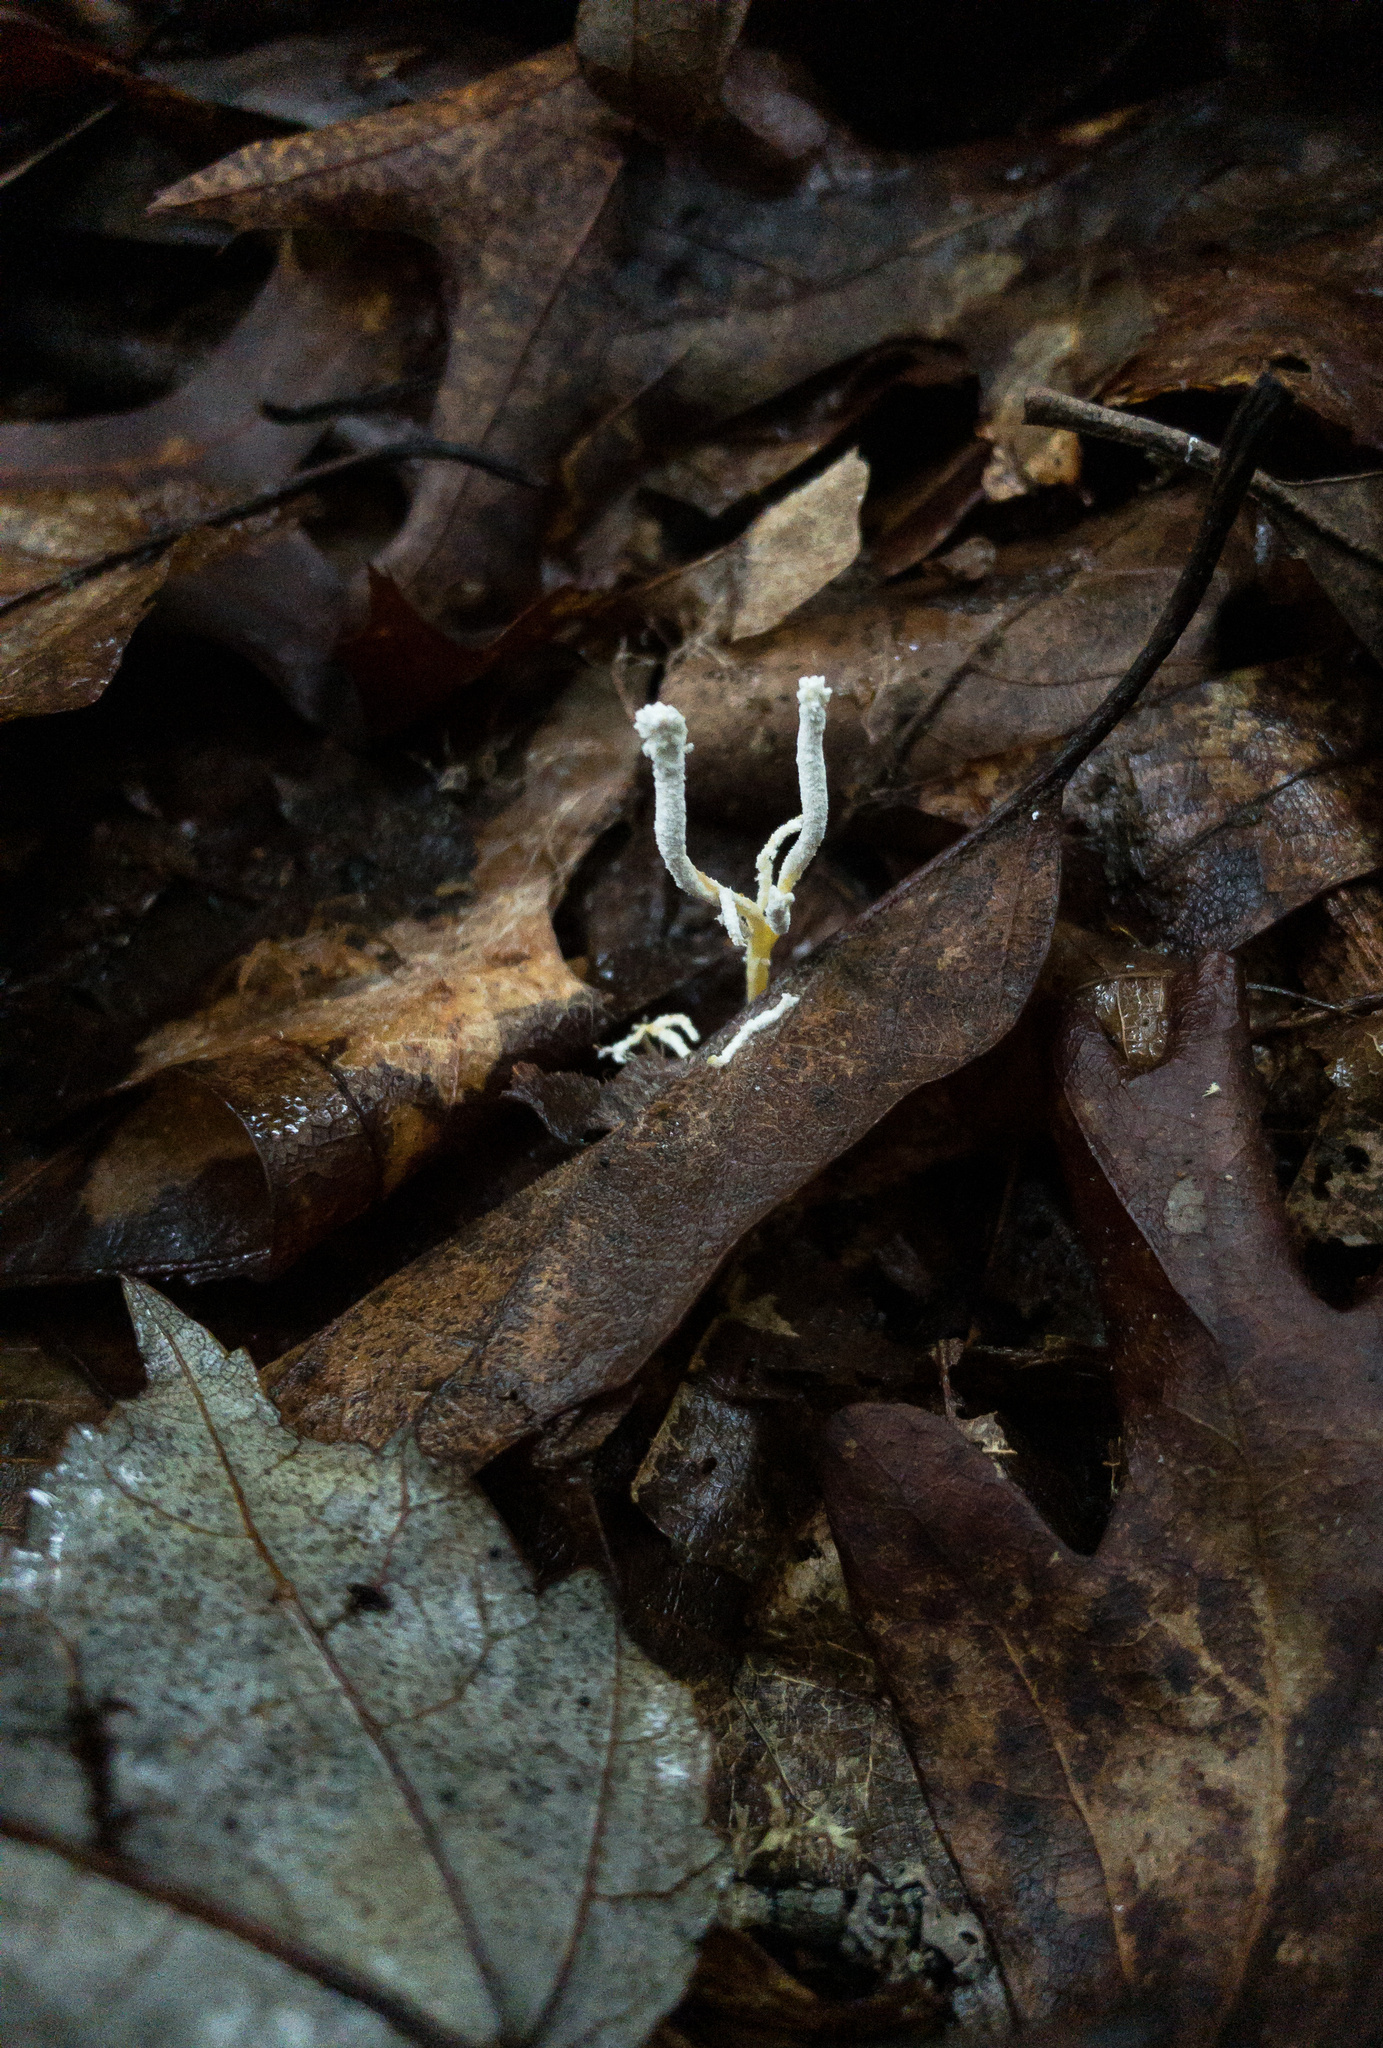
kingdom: Fungi
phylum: Ascomycota
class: Sordariomycetes
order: Hypocreales
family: Cordycipitaceae
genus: Cordyceps
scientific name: Cordyceps tenuipes
